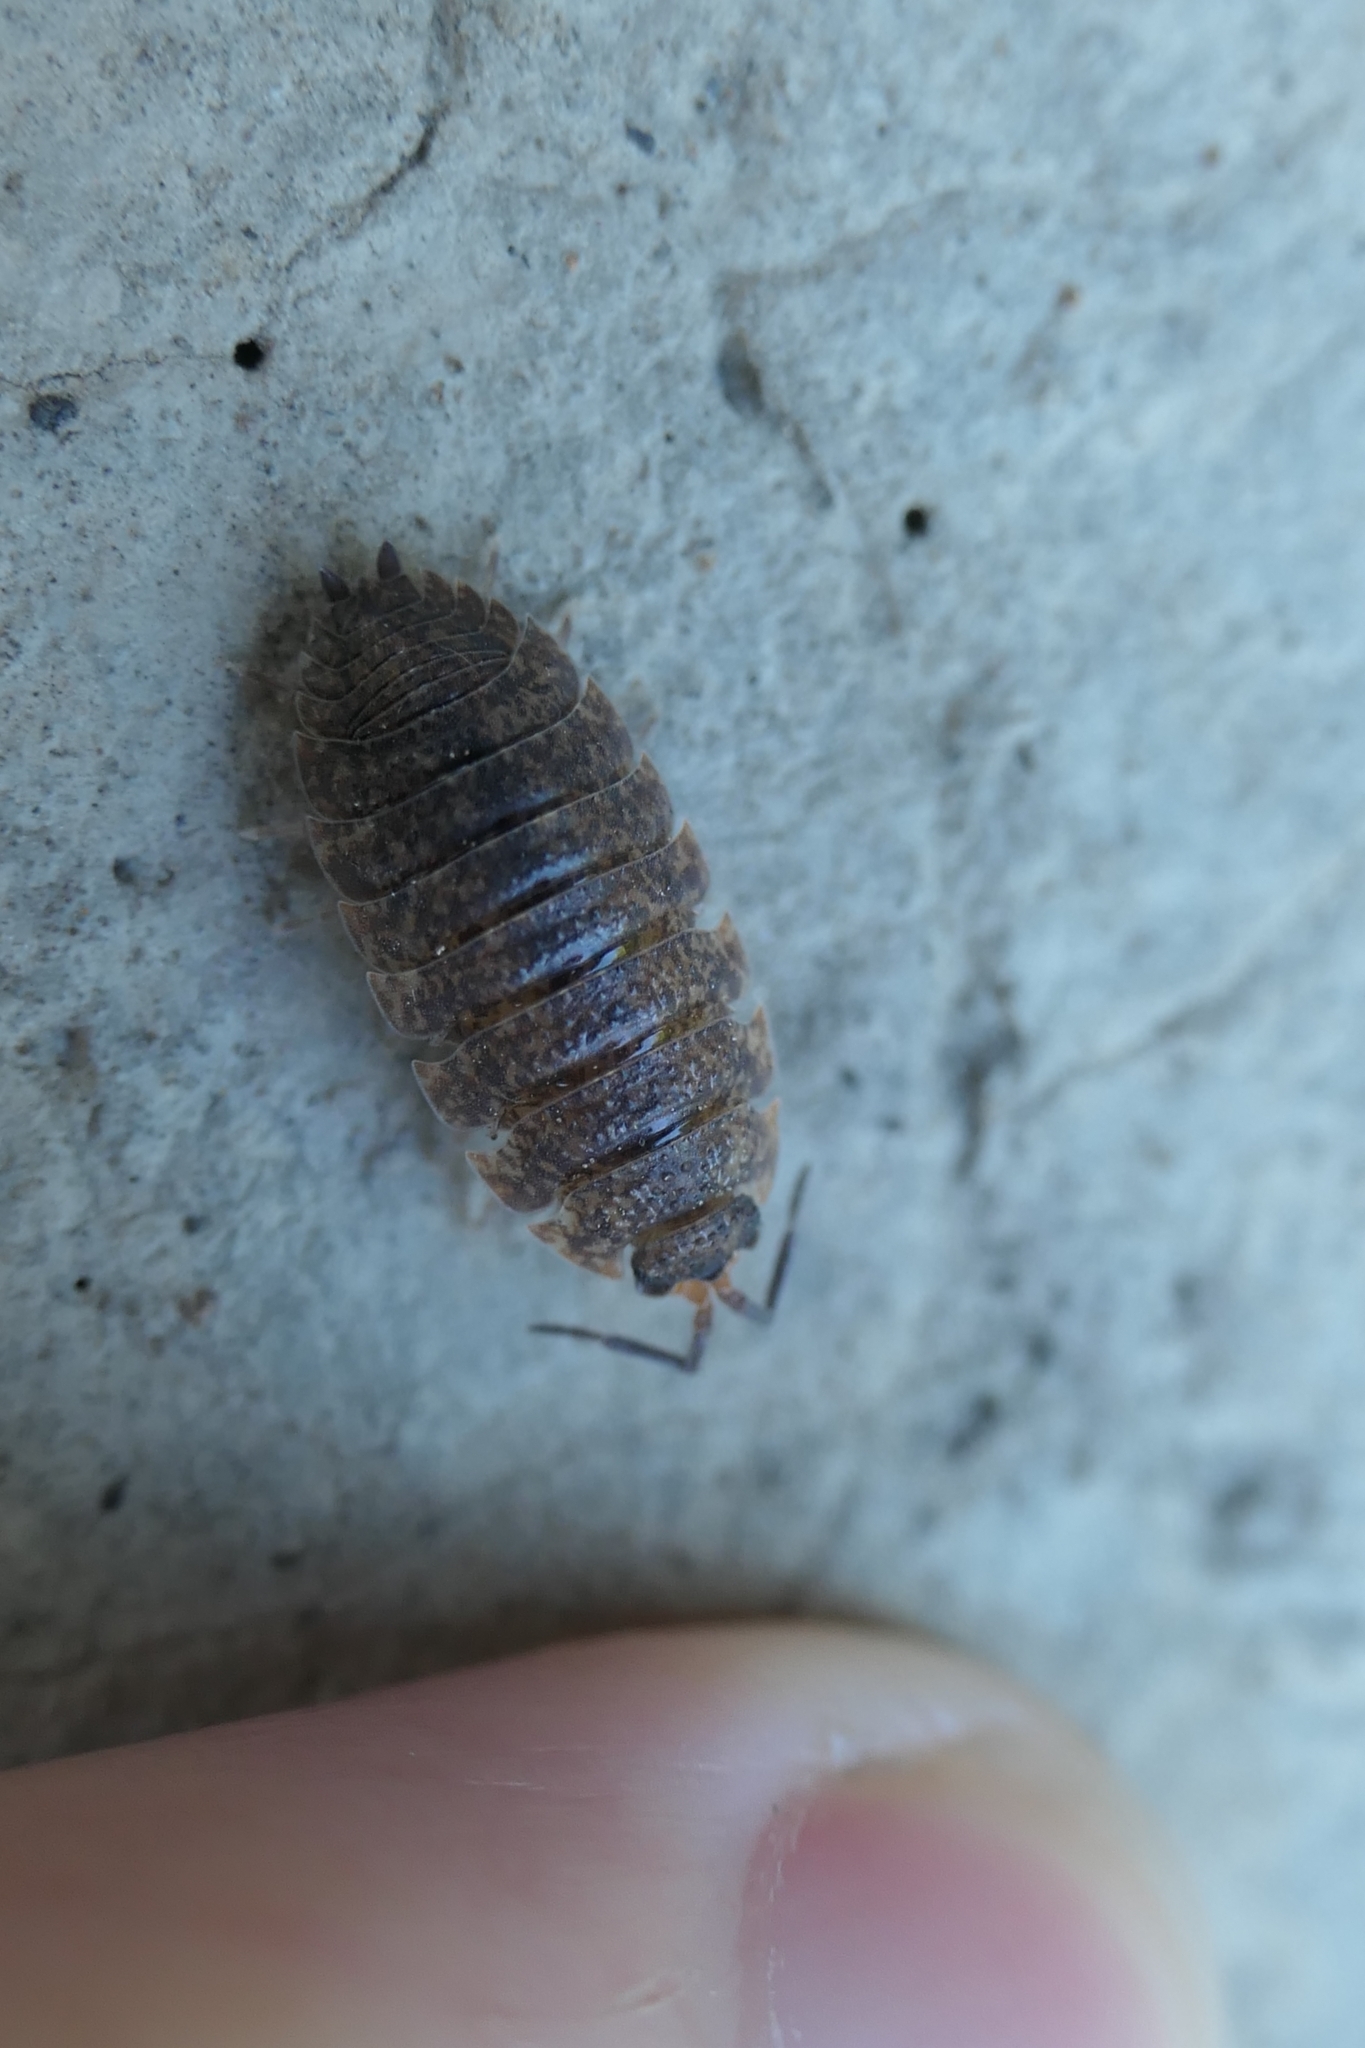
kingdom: Animalia
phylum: Arthropoda
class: Malacostraca
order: Isopoda
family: Porcellionidae
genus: Porcellio
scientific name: Porcellio scaber
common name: Common rough woodlouse
